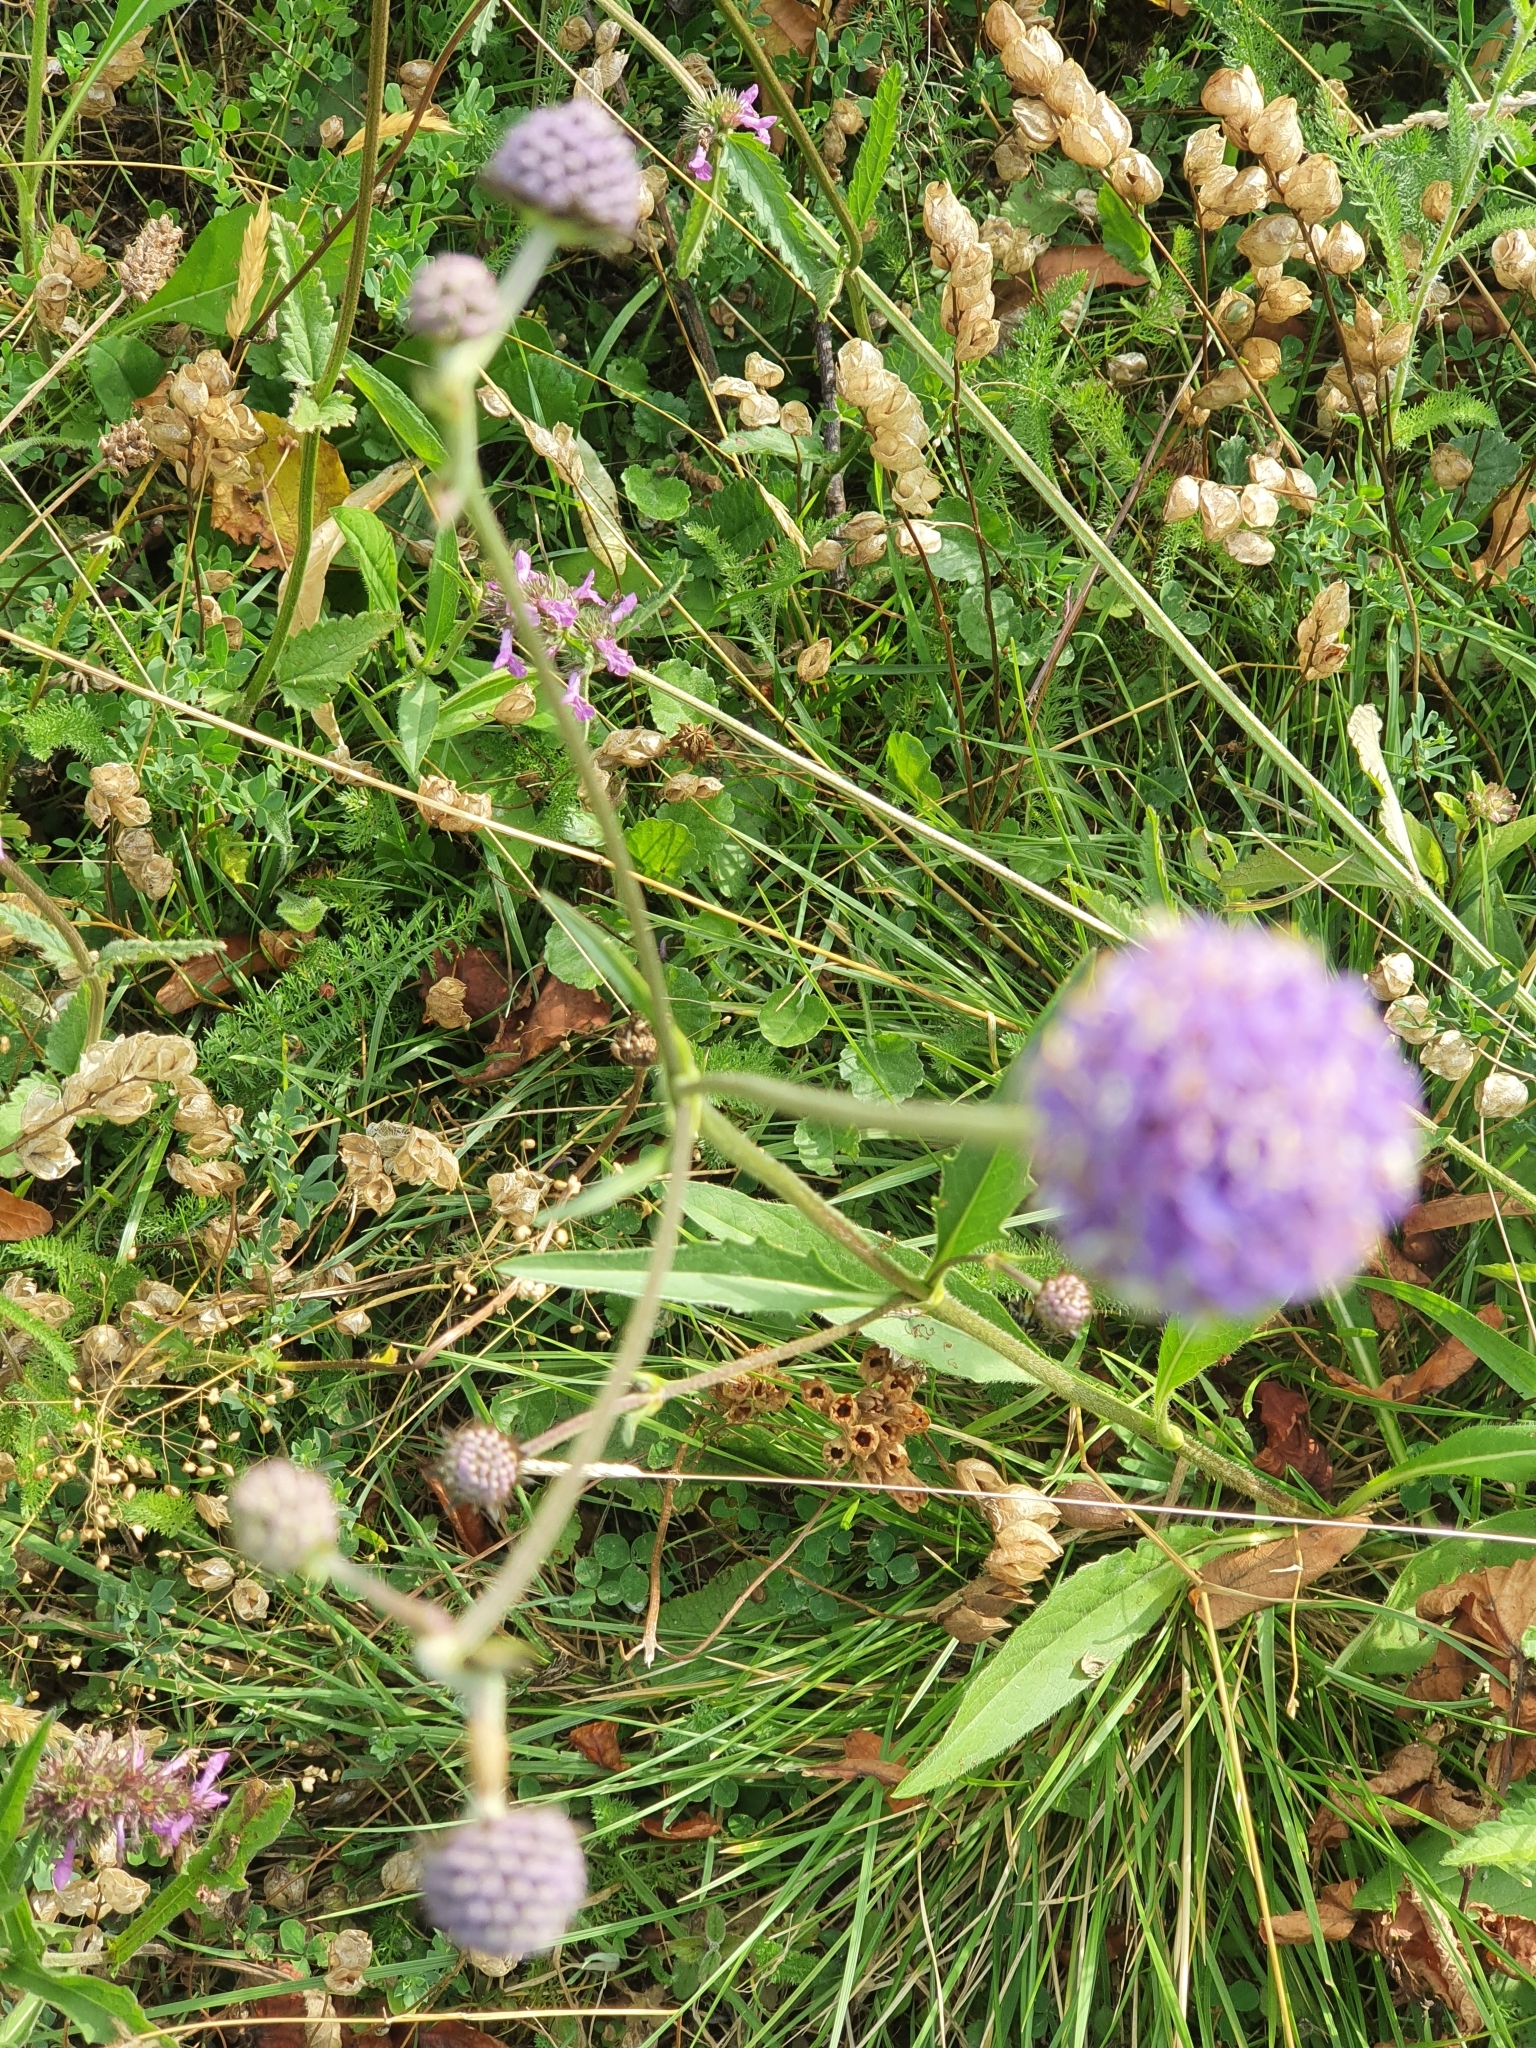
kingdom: Plantae
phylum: Tracheophyta
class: Magnoliopsida
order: Dipsacales
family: Caprifoliaceae
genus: Succisa
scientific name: Succisa pratensis
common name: Devil's-bit
